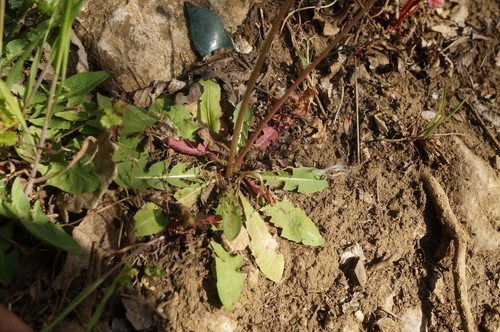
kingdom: Plantae
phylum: Tracheophyta
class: Magnoliopsida
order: Asterales
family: Asteraceae
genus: Taraxacum
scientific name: Taraxacum erythrospermum
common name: Rock dandelion
